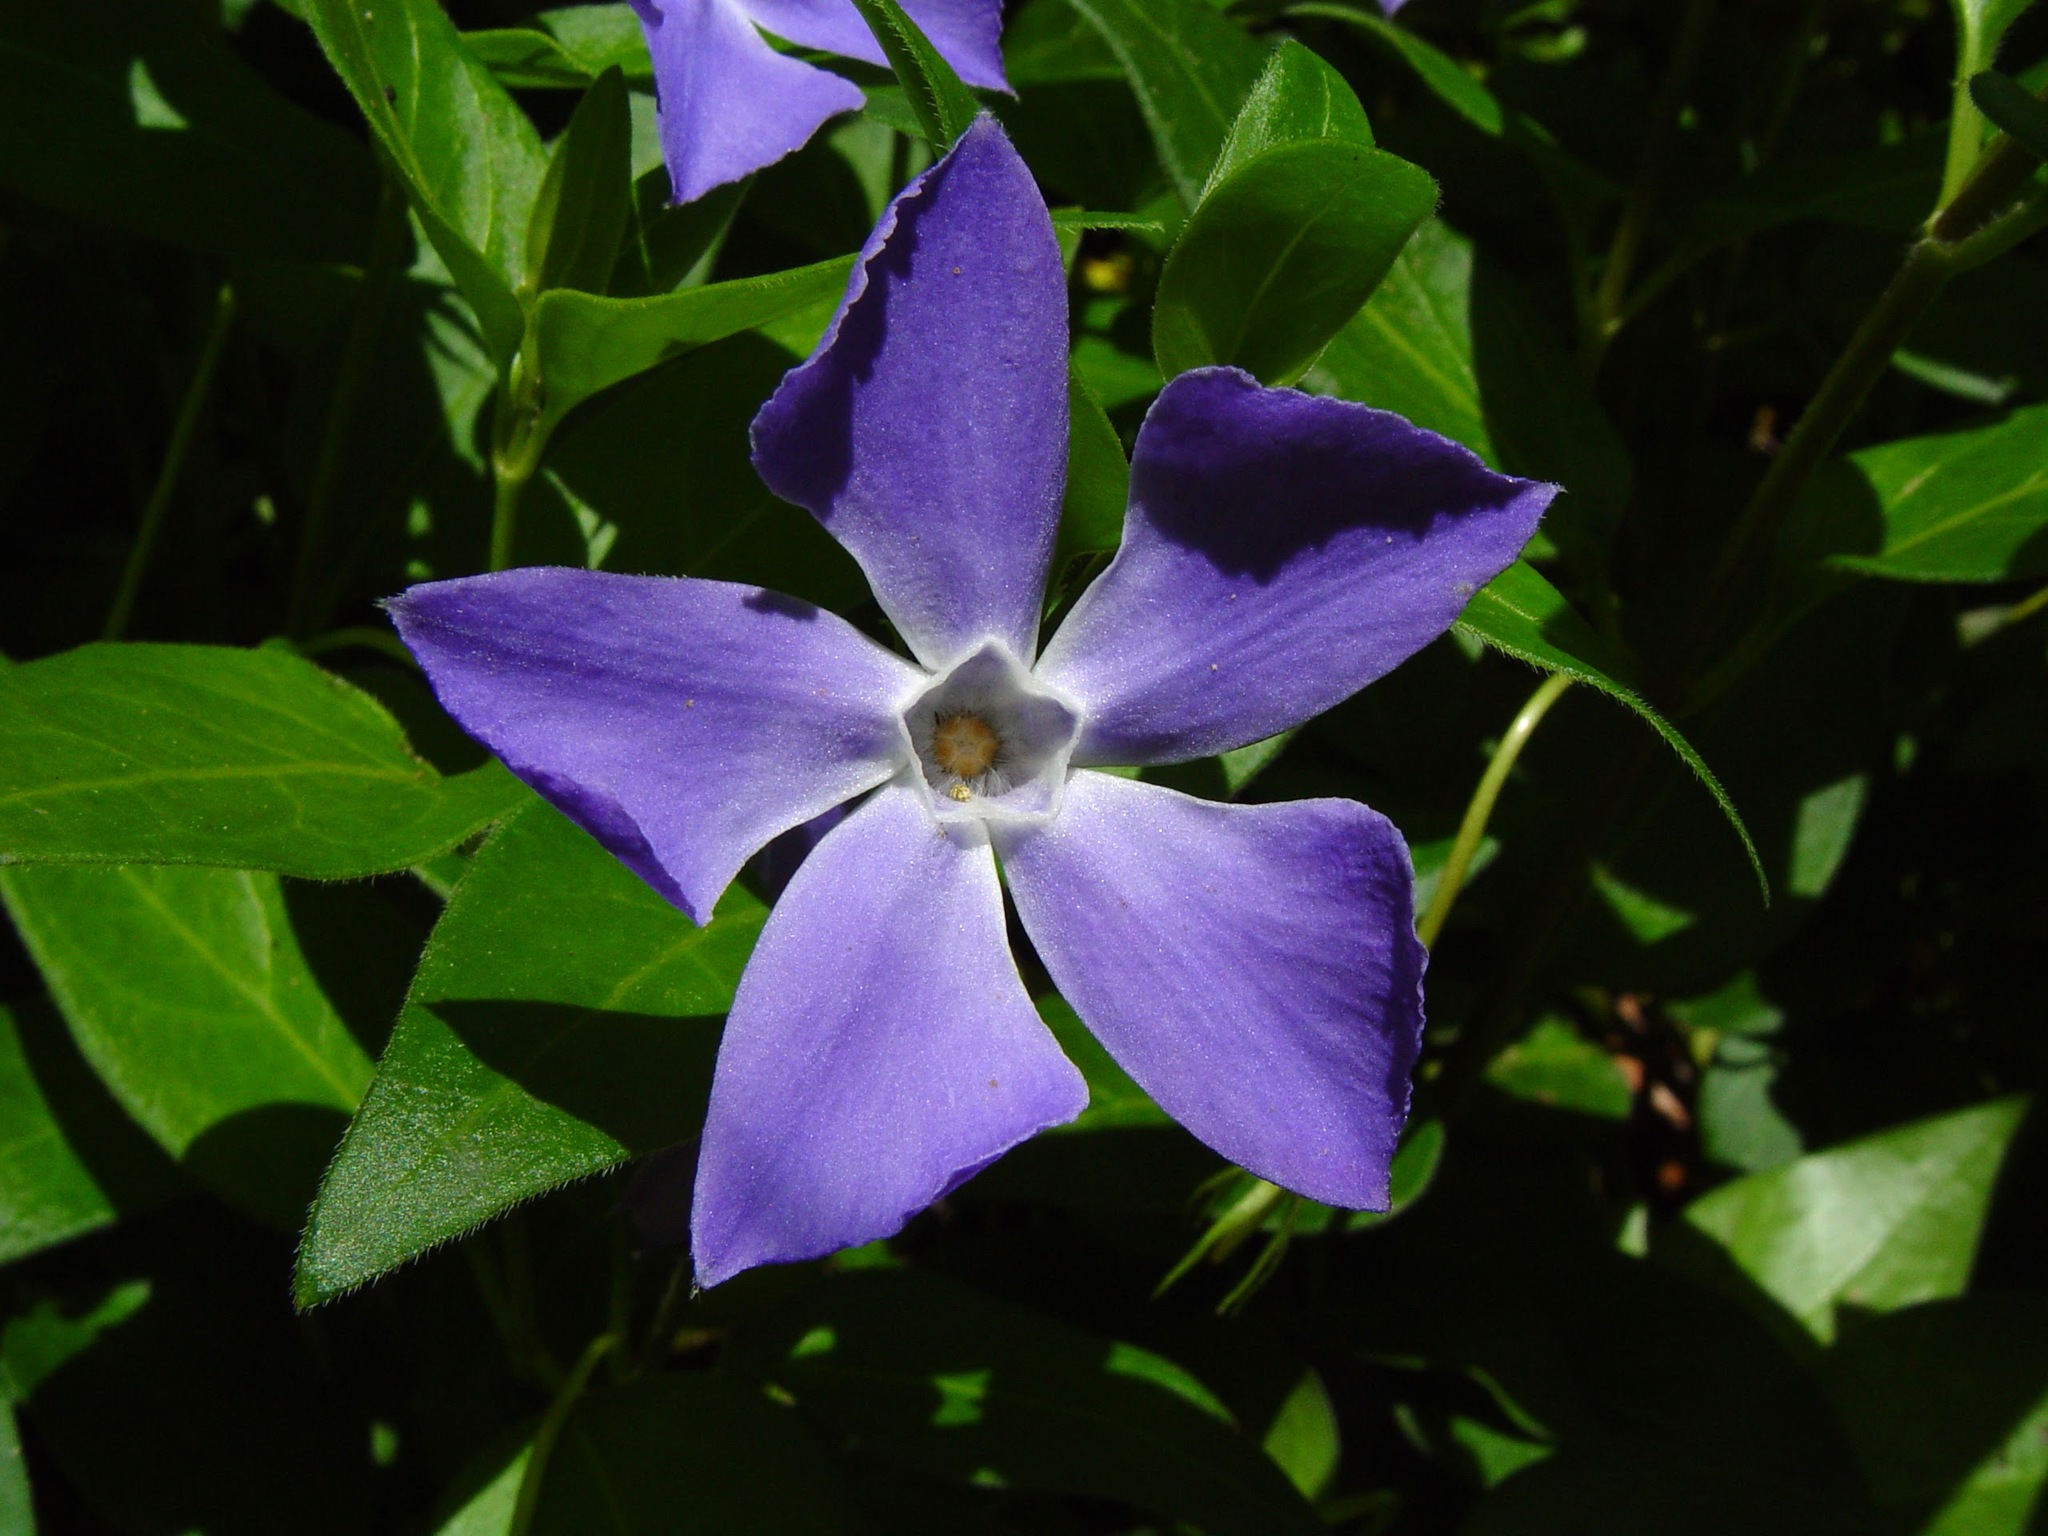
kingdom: Plantae
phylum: Tracheophyta
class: Magnoliopsida
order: Gentianales
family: Apocynaceae
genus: Vinca
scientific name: Vinca major
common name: Greater periwinkle
